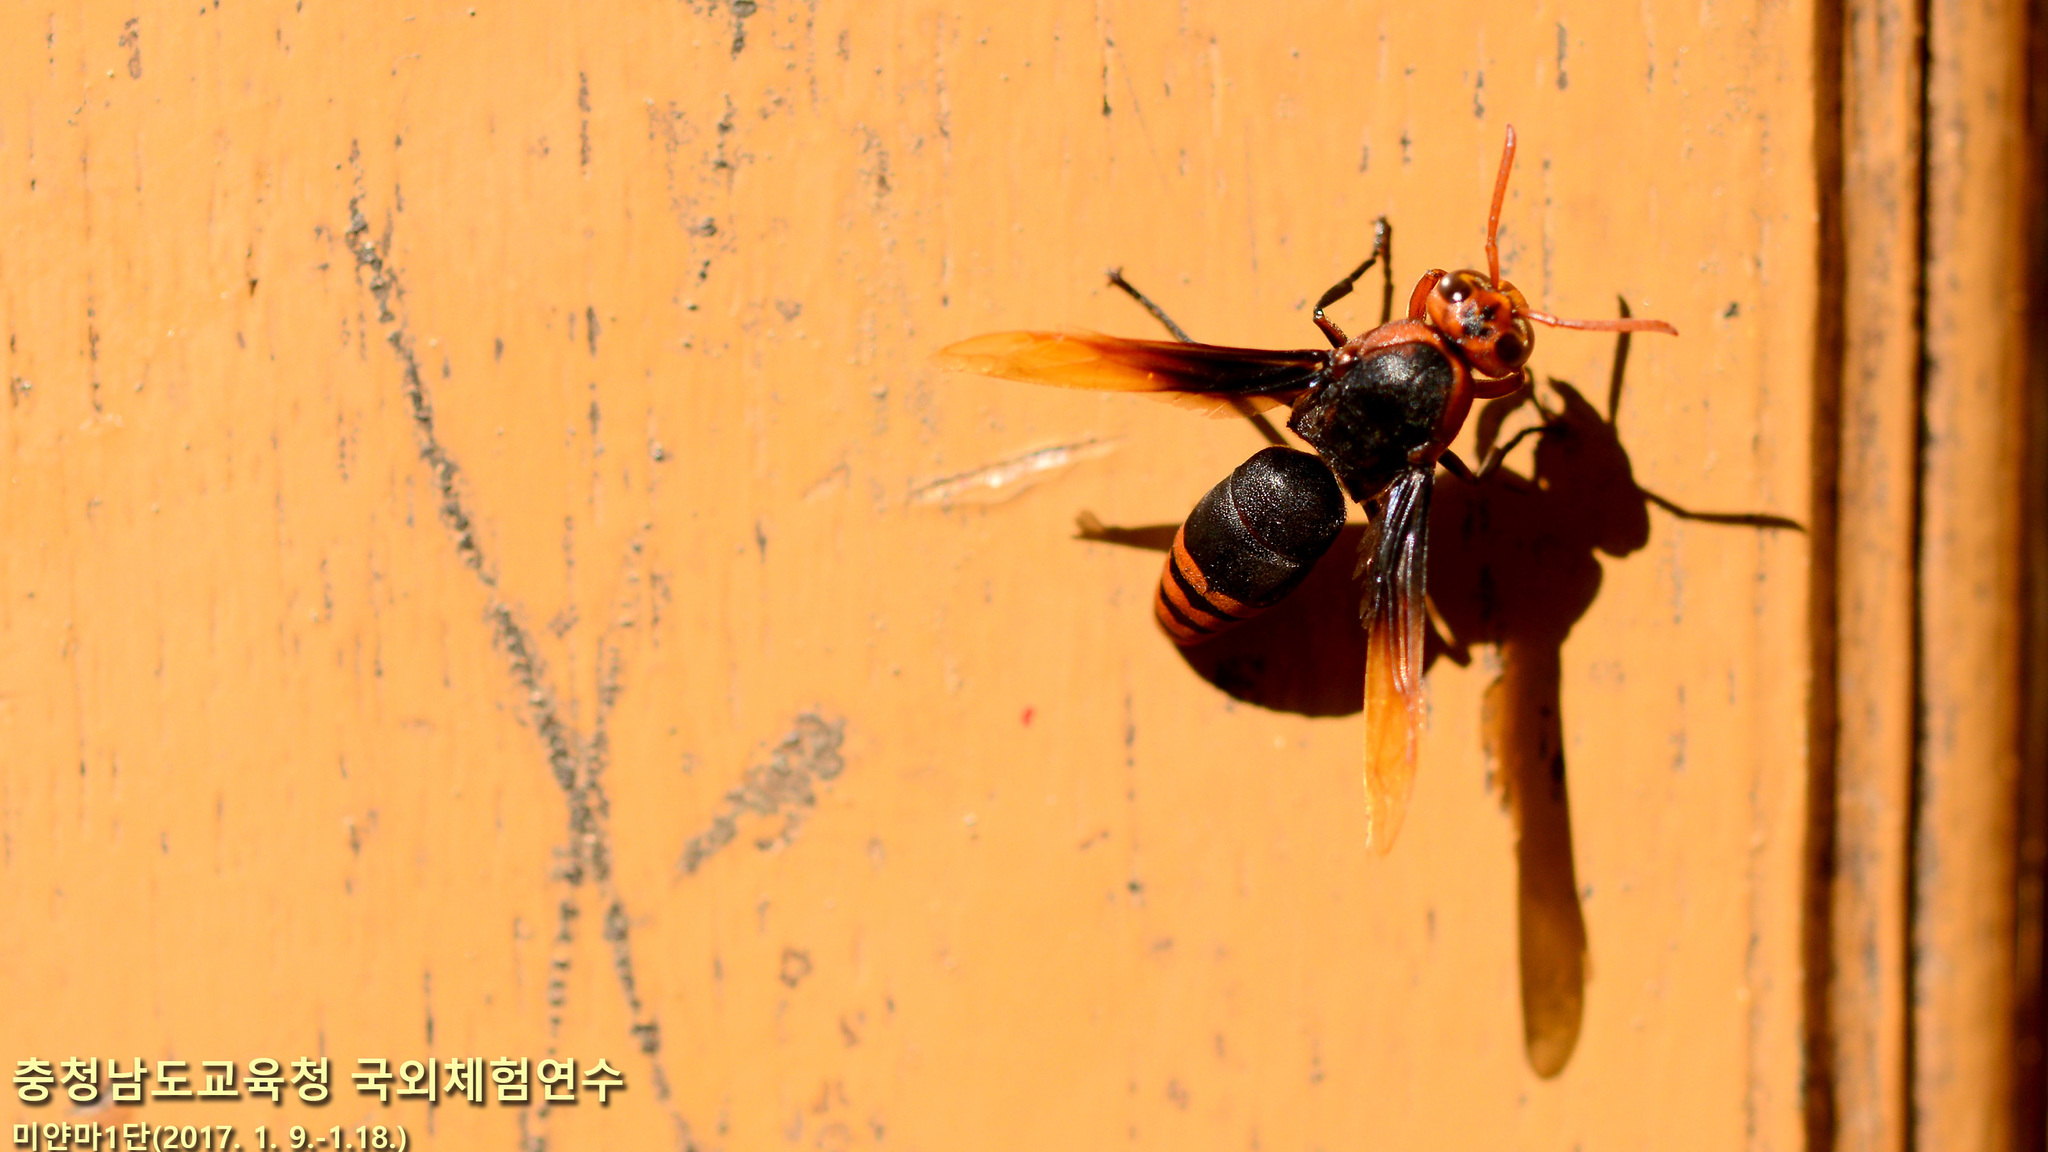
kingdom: Animalia
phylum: Arthropoda
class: Insecta
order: Hymenoptera
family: Eumenidae
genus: Rhynchium
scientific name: Rhynchium haemorrhoidale
